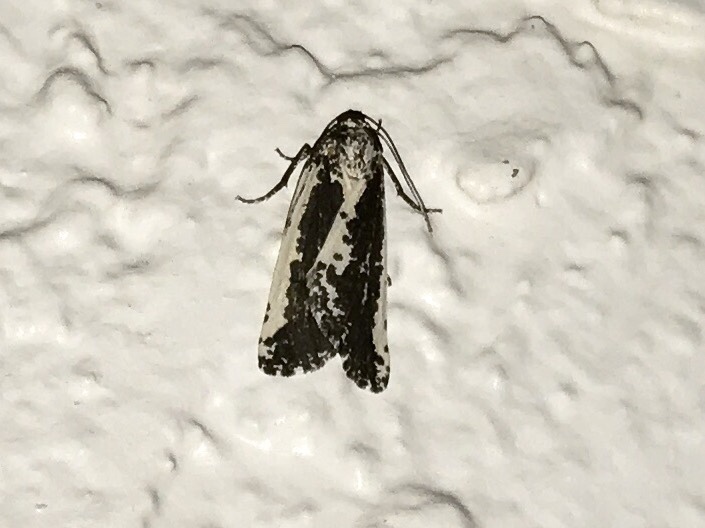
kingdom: Animalia
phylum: Arthropoda
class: Insecta
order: Lepidoptera
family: Geometridae
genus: Eucaterva
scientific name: Eucaterva variaria
